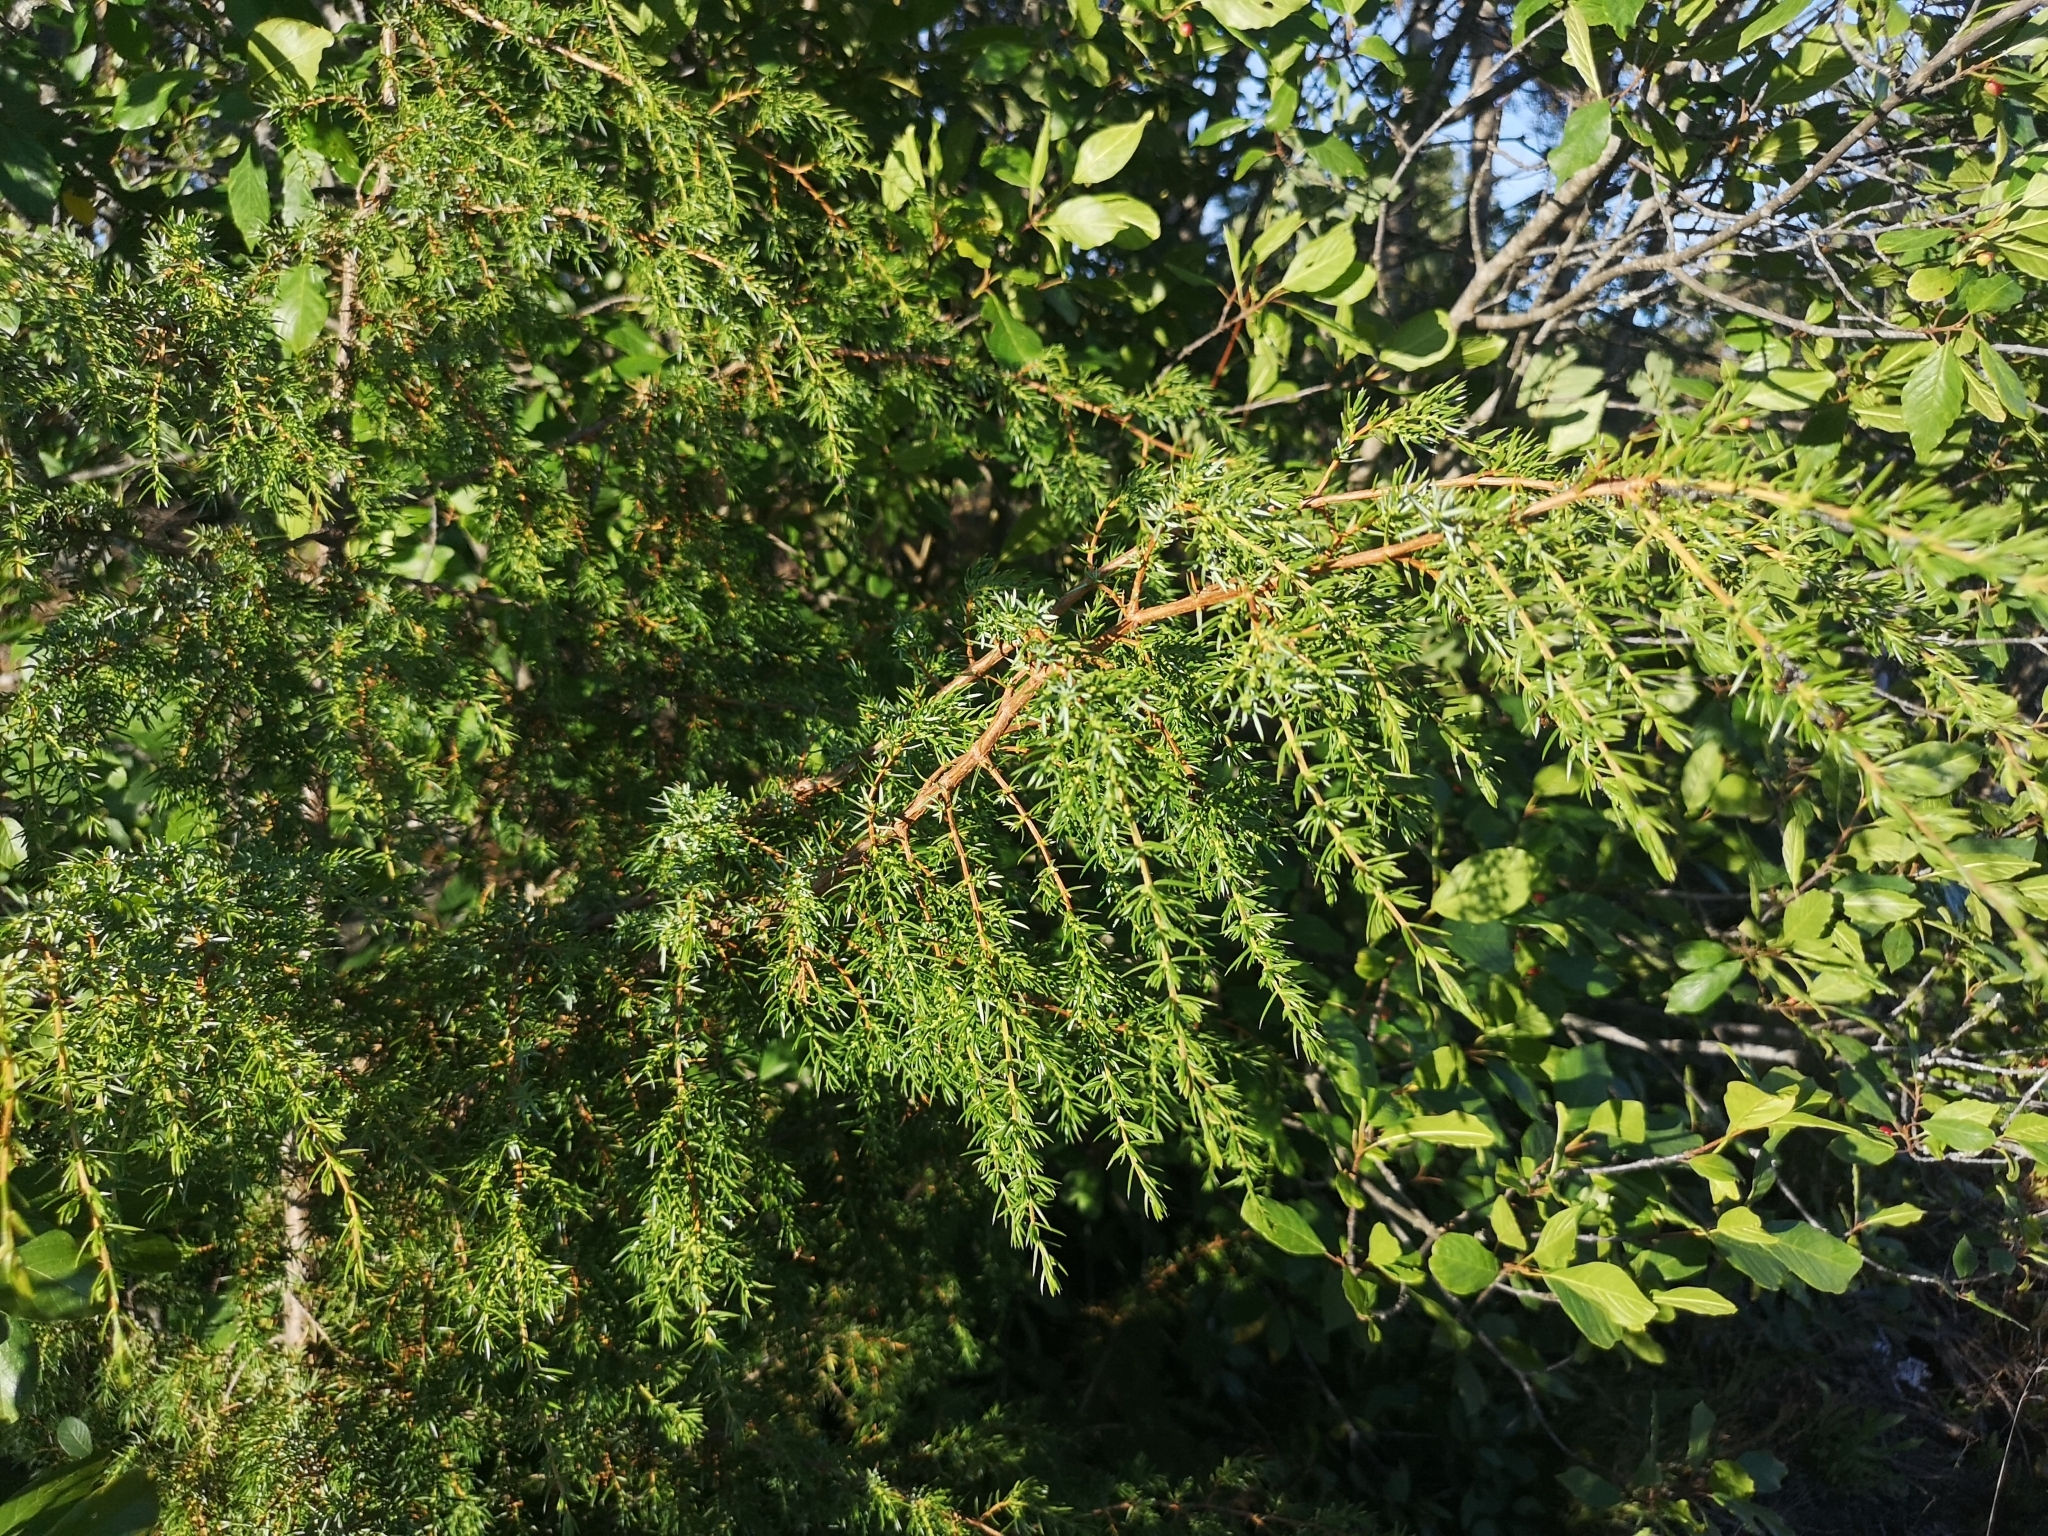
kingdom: Plantae
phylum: Tracheophyta
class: Pinopsida
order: Pinales
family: Cupressaceae
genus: Juniperus
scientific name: Juniperus communis
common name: Common juniper
